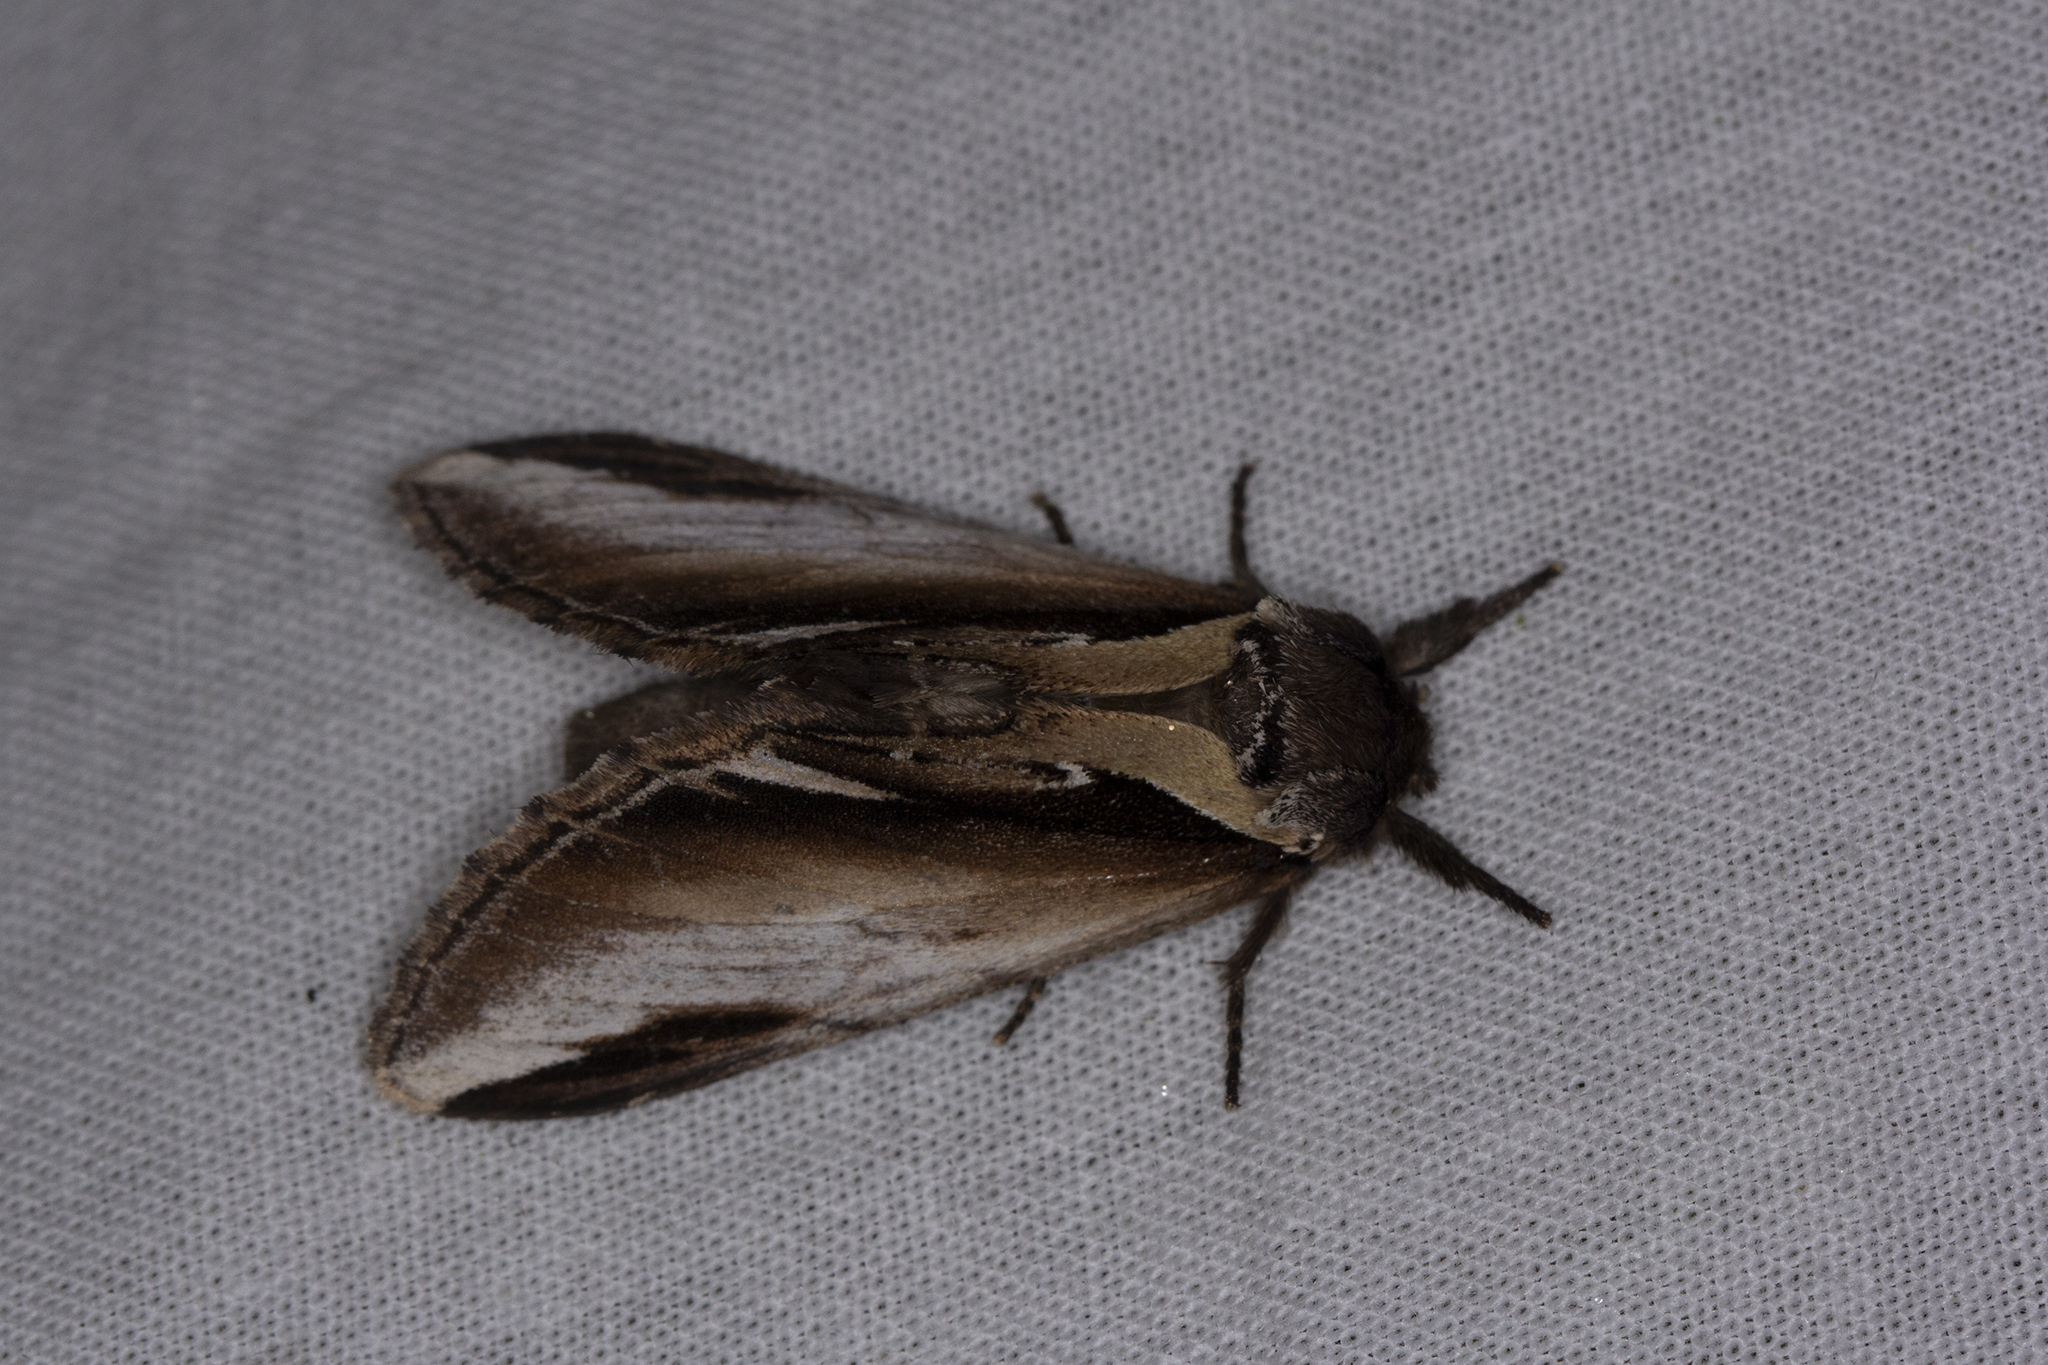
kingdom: Animalia
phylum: Arthropoda
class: Insecta
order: Lepidoptera
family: Notodontidae
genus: Pheosia
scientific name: Pheosia tremula
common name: Swallow prominent
